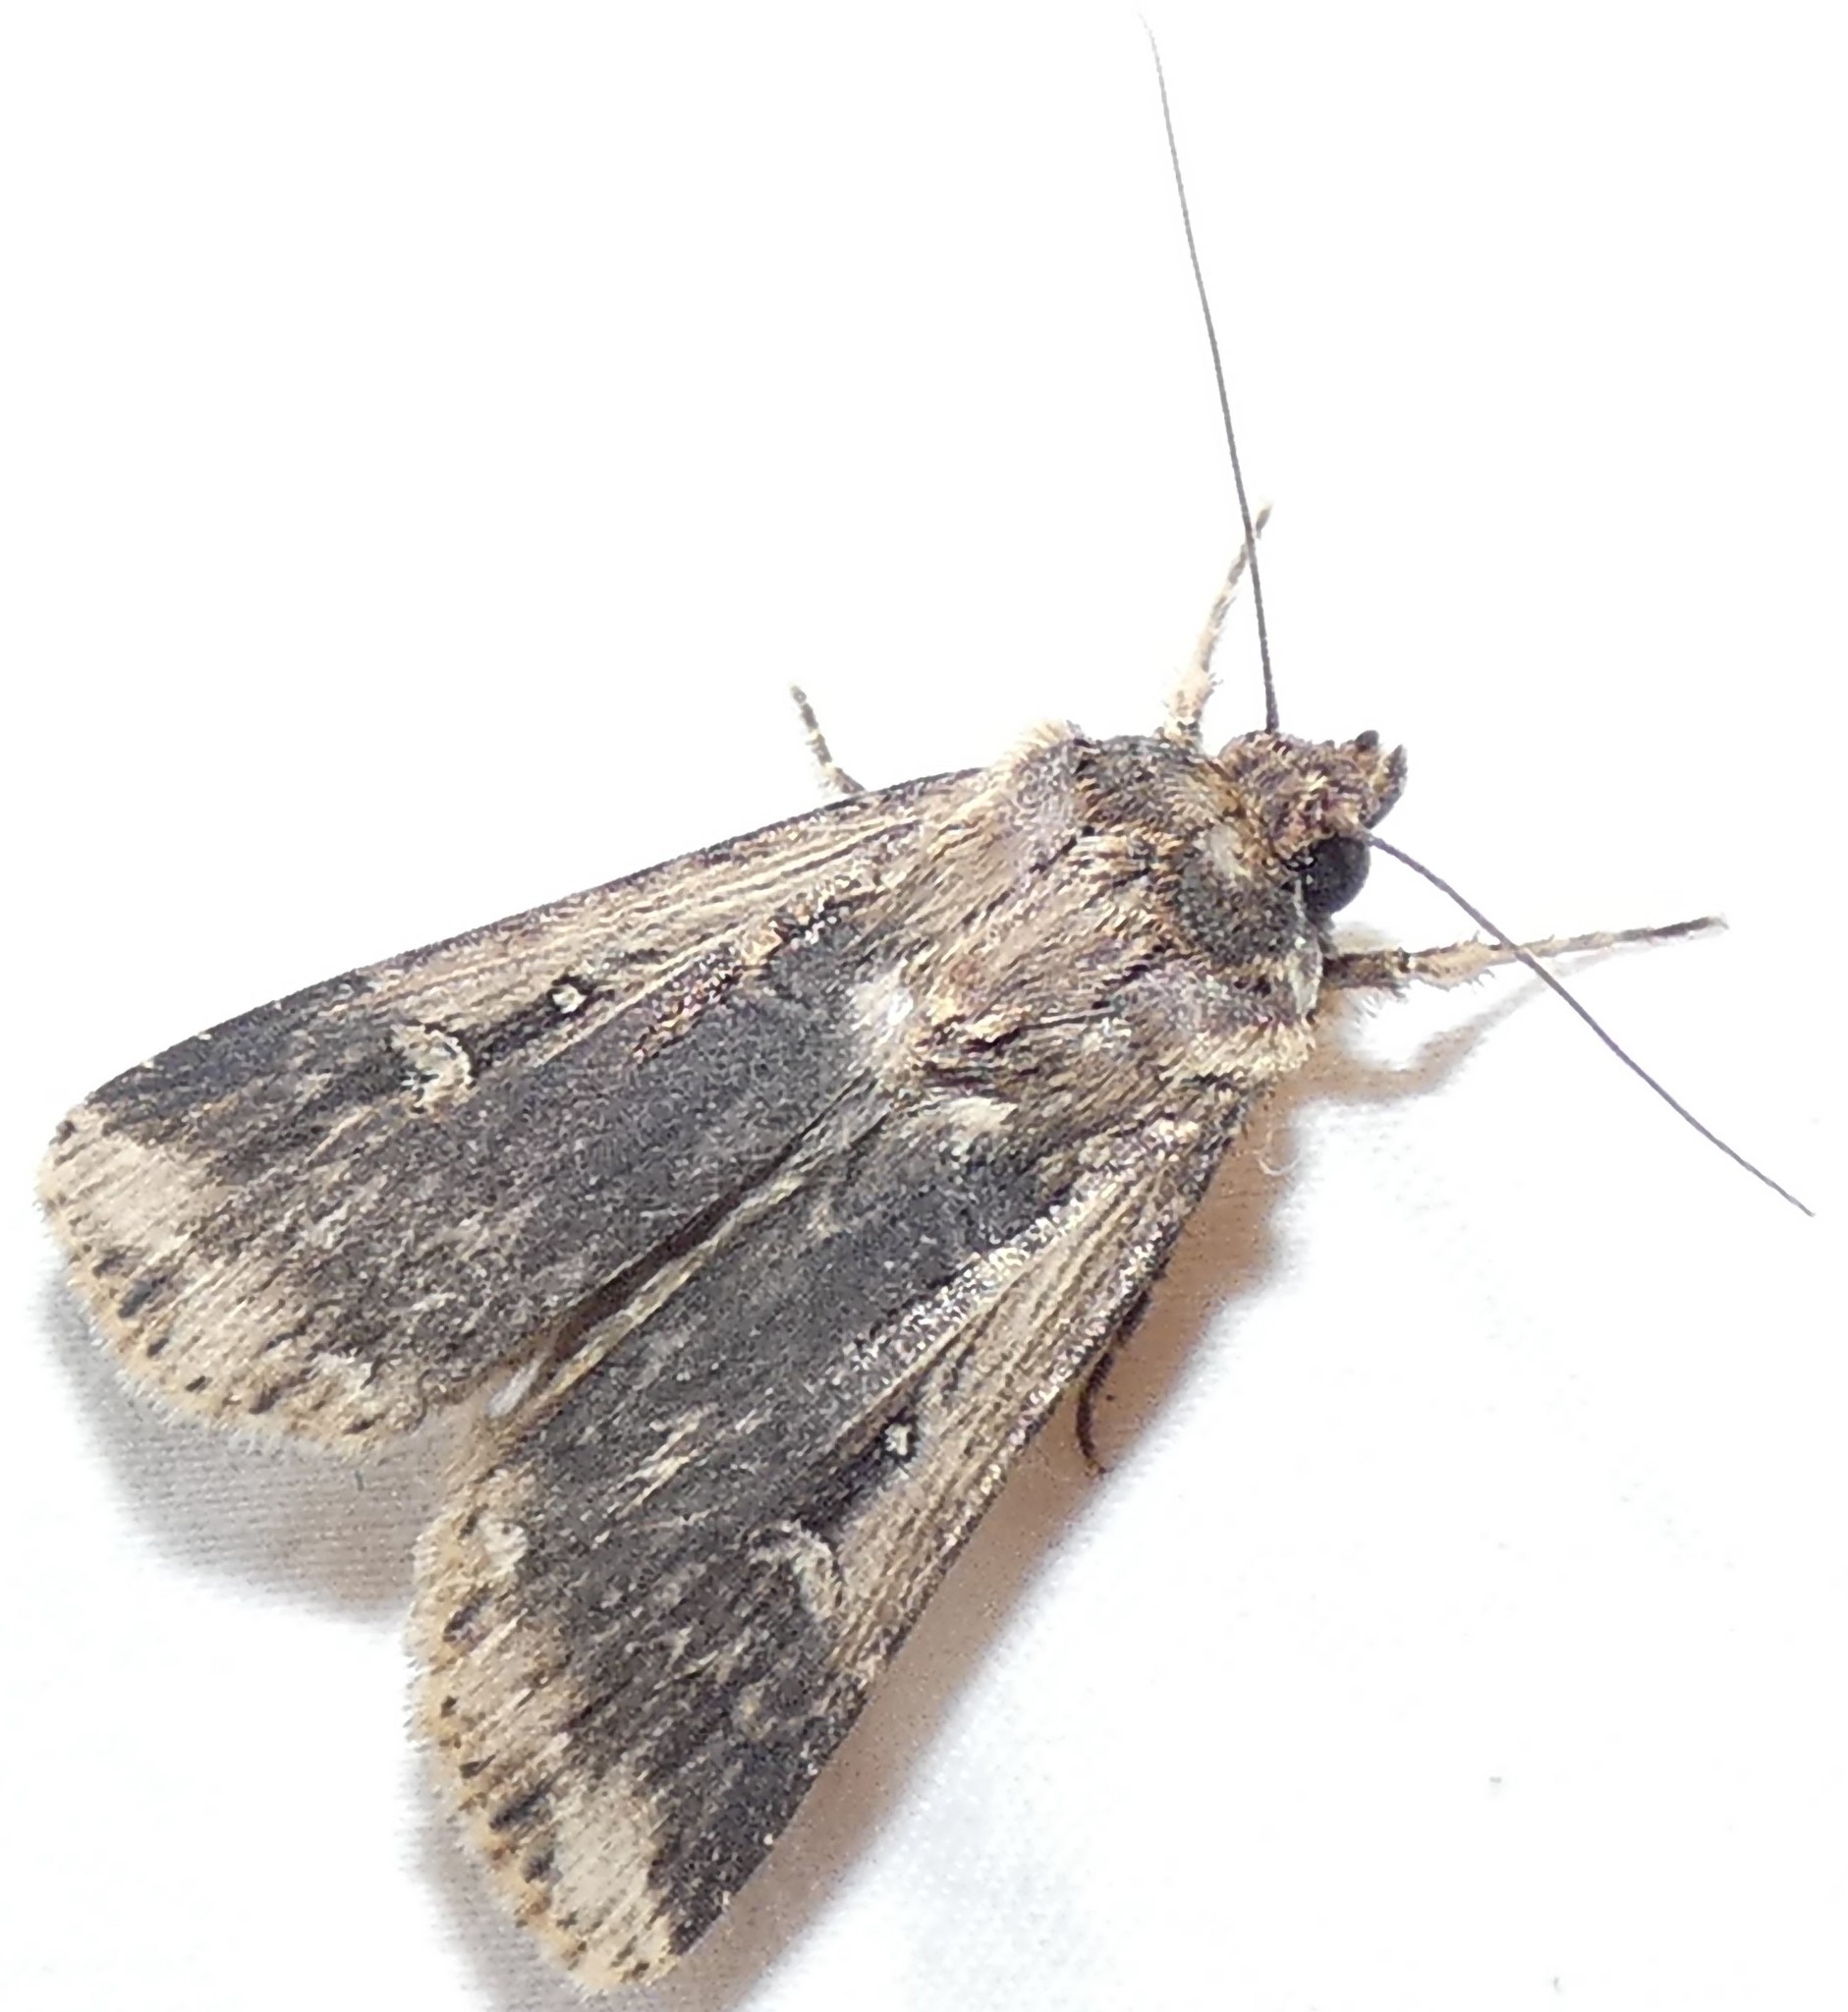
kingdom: Animalia
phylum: Arthropoda
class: Insecta
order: Lepidoptera
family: Noctuidae
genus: Feltia
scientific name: Feltia subterranea
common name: Granulate cutworm
